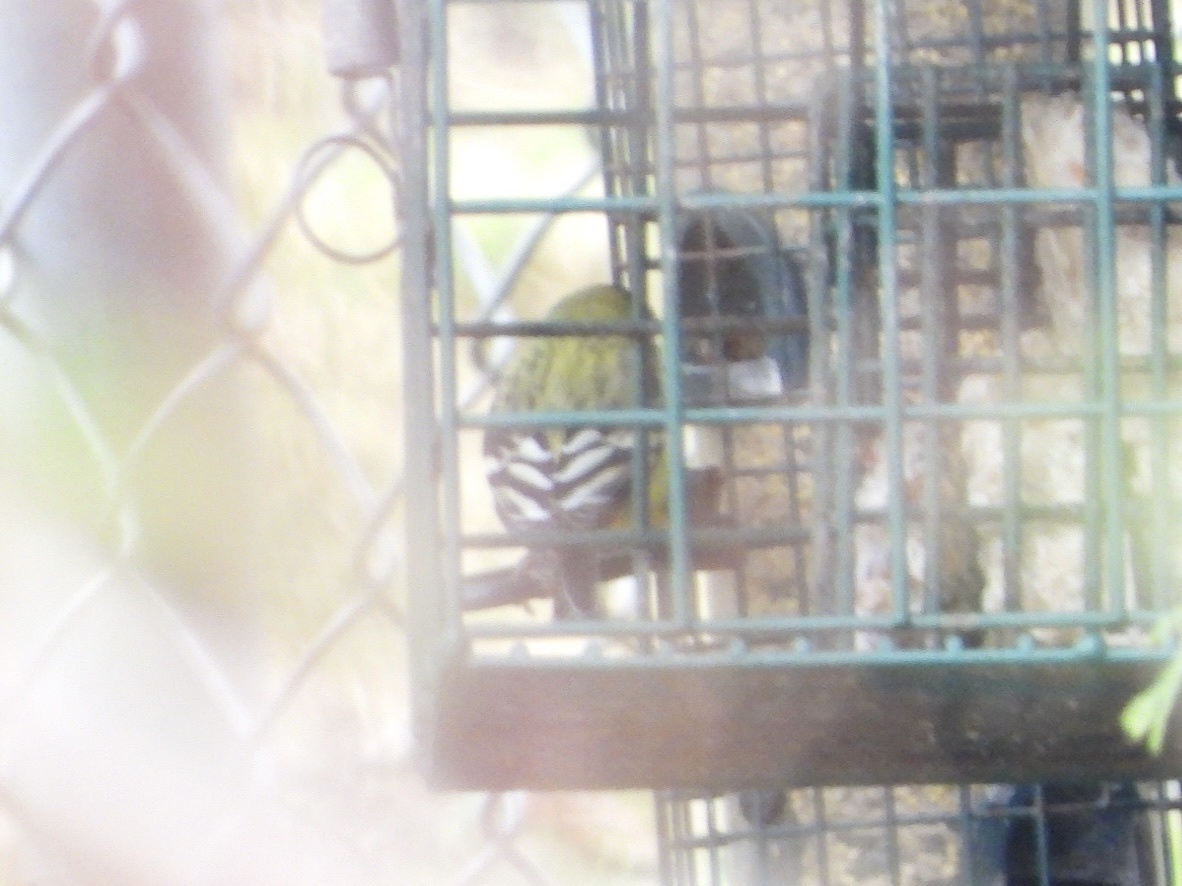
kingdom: Animalia
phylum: Chordata
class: Aves
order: Passeriformes
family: Fringillidae
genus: Spinus
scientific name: Spinus psaltria
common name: Lesser goldfinch
